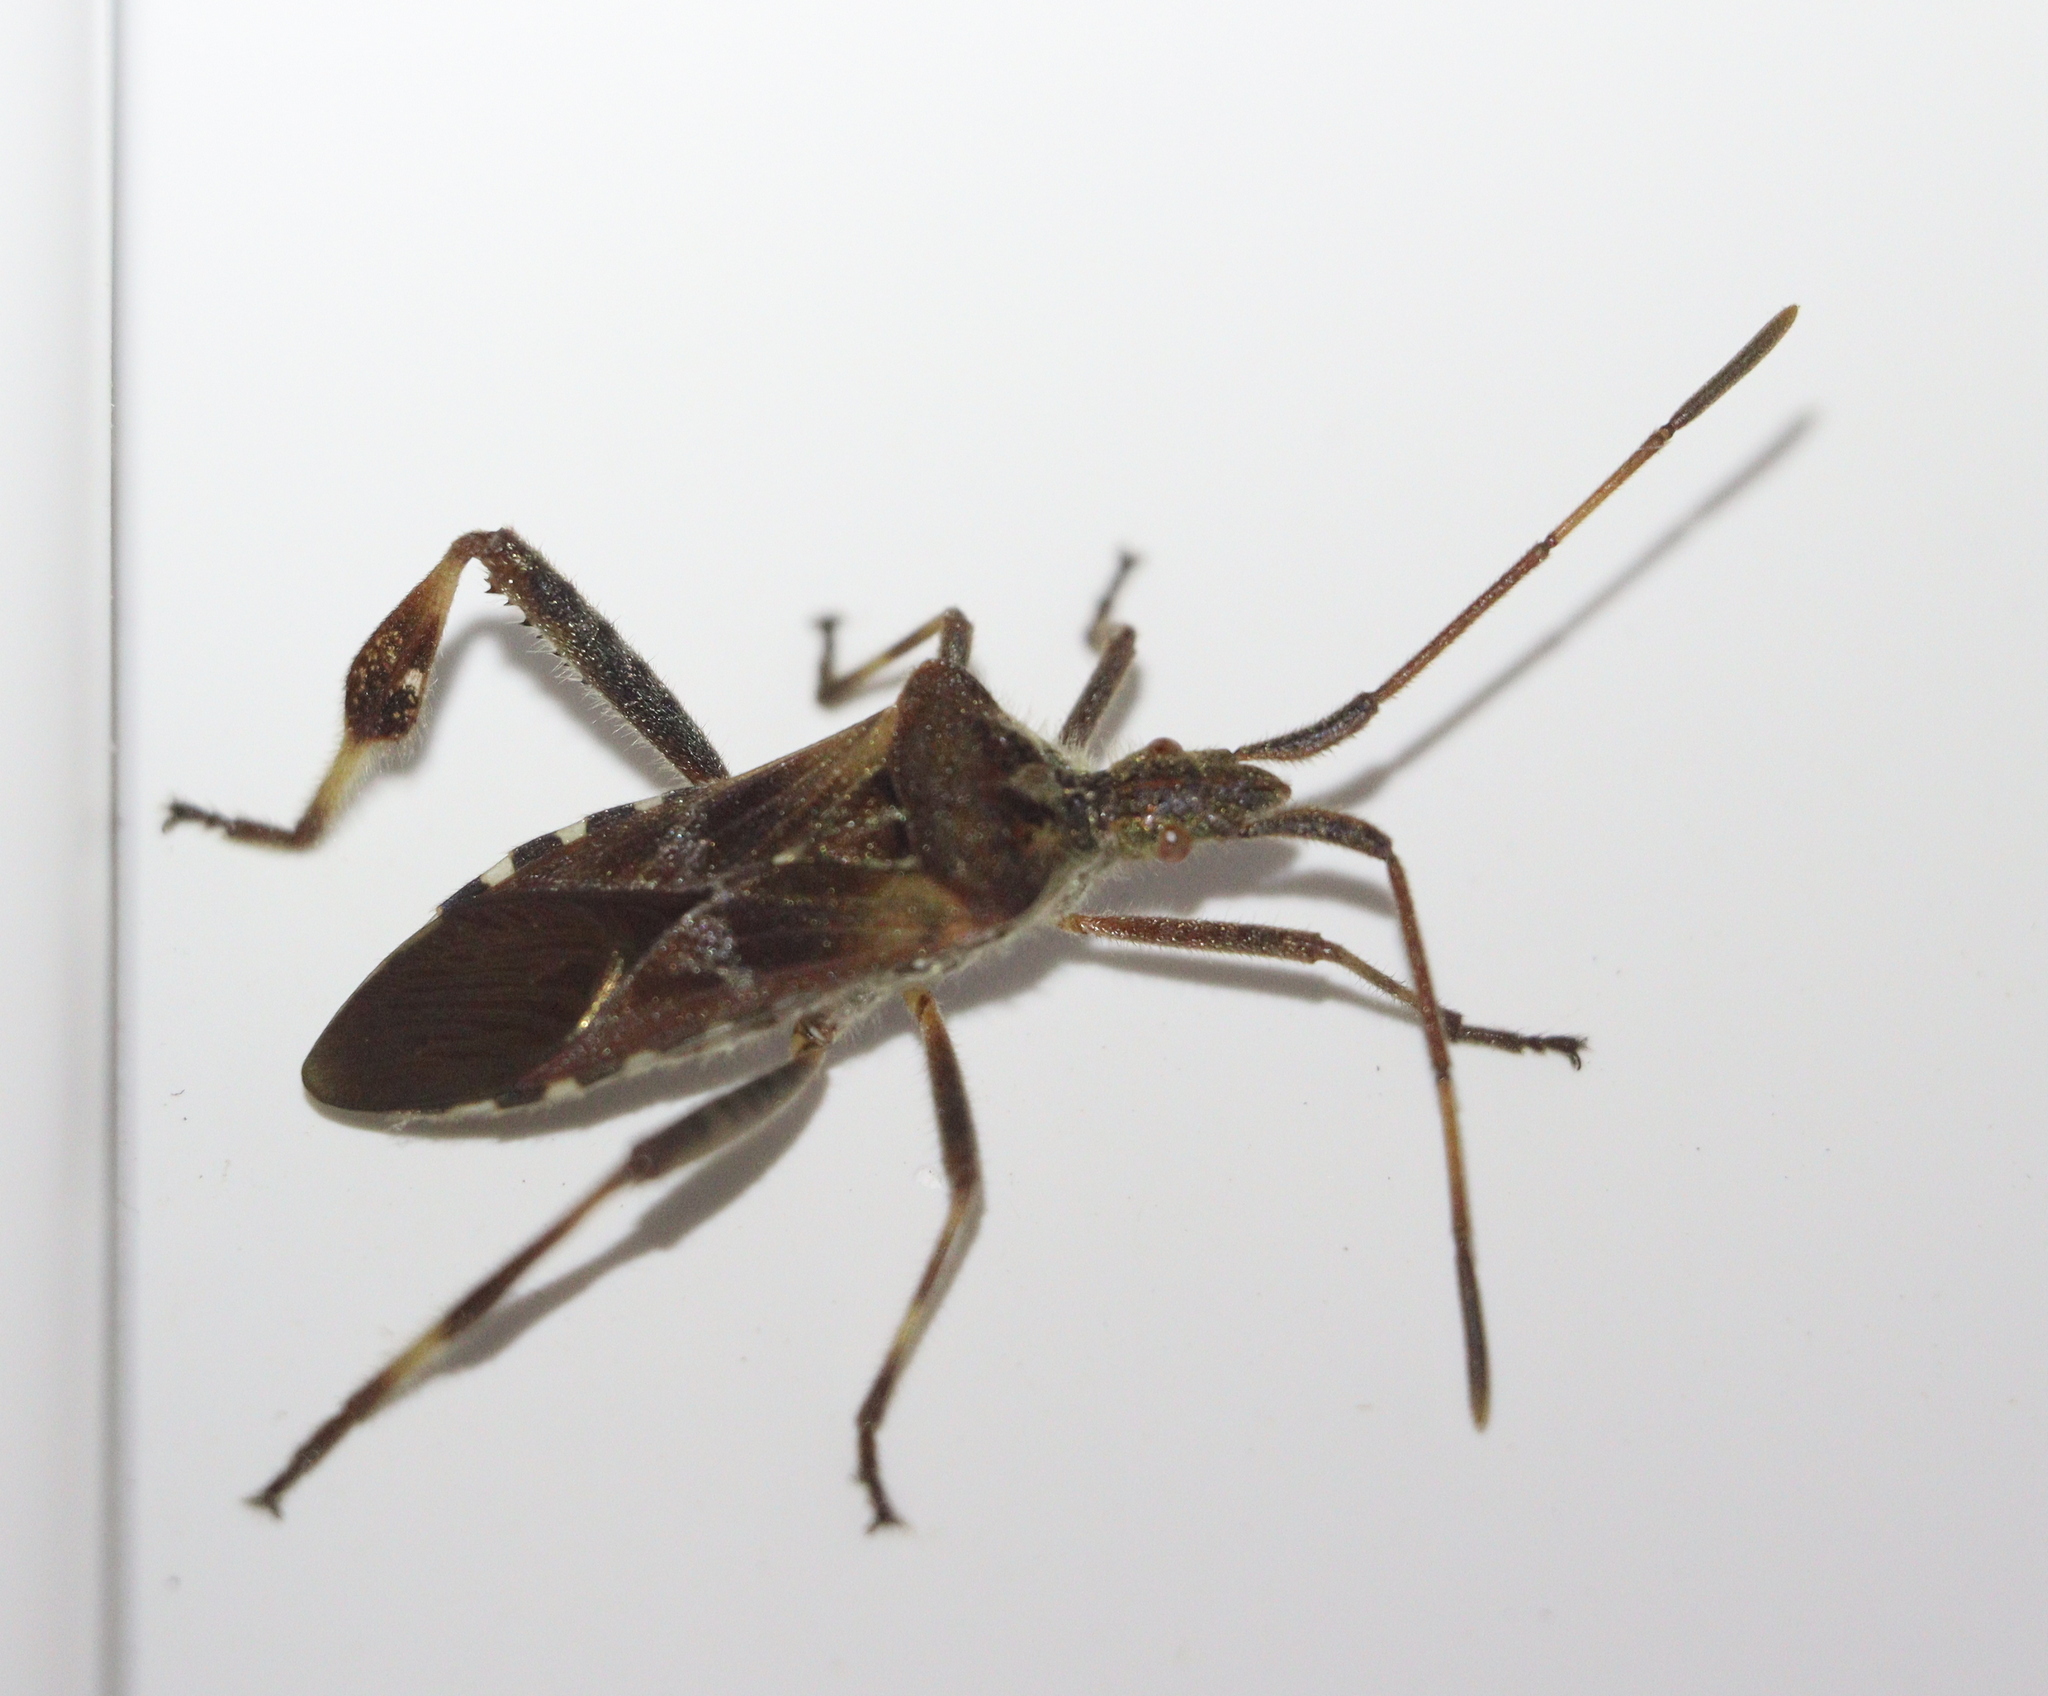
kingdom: Animalia
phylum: Arthropoda
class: Insecta
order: Hemiptera
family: Coreidae
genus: Leptoglossus
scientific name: Leptoglossus occidentalis
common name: Western conifer-seed bug
